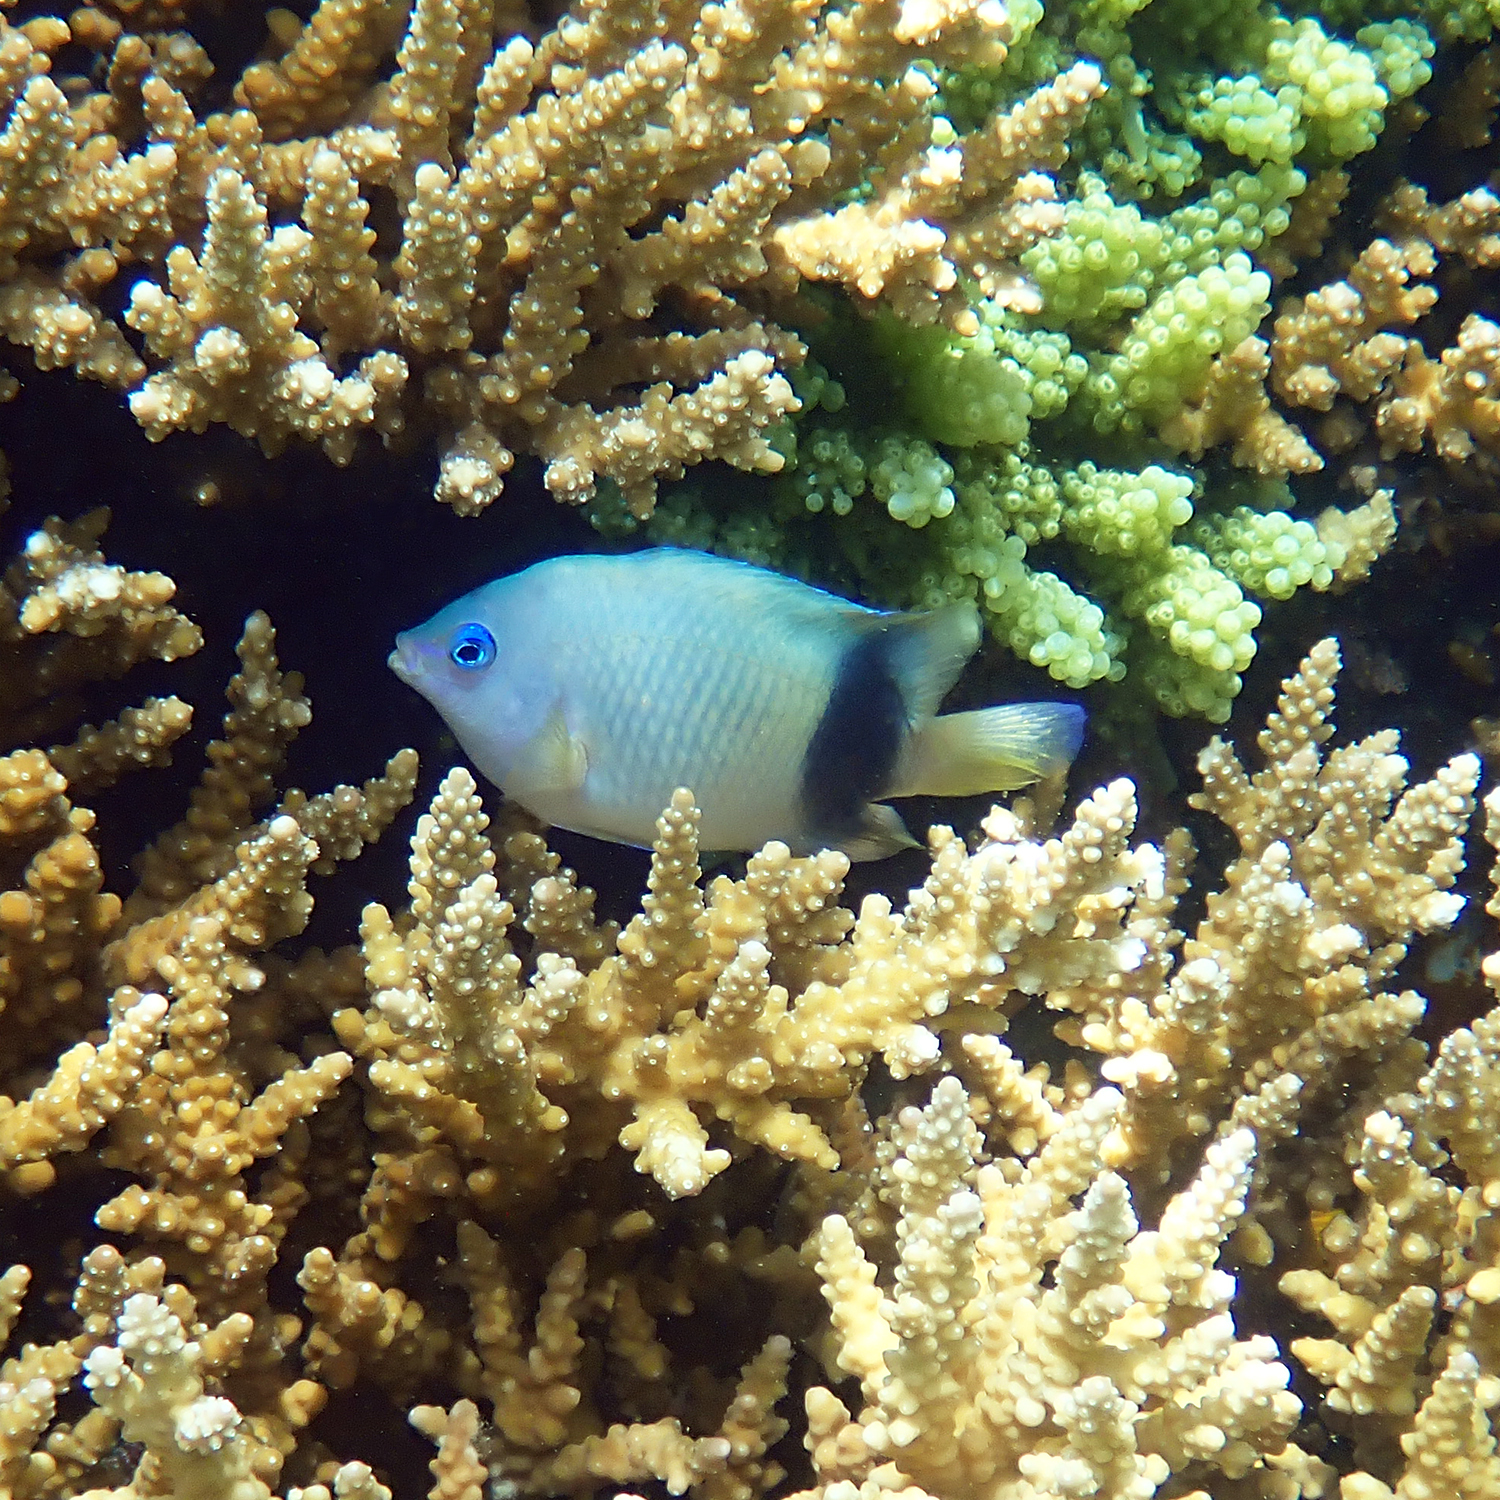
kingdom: Animalia
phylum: Chordata
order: Perciformes
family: Pomacentridae
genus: Plectroglyphidodon
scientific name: Plectroglyphidodon johnstonianus
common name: Johnston damsel
